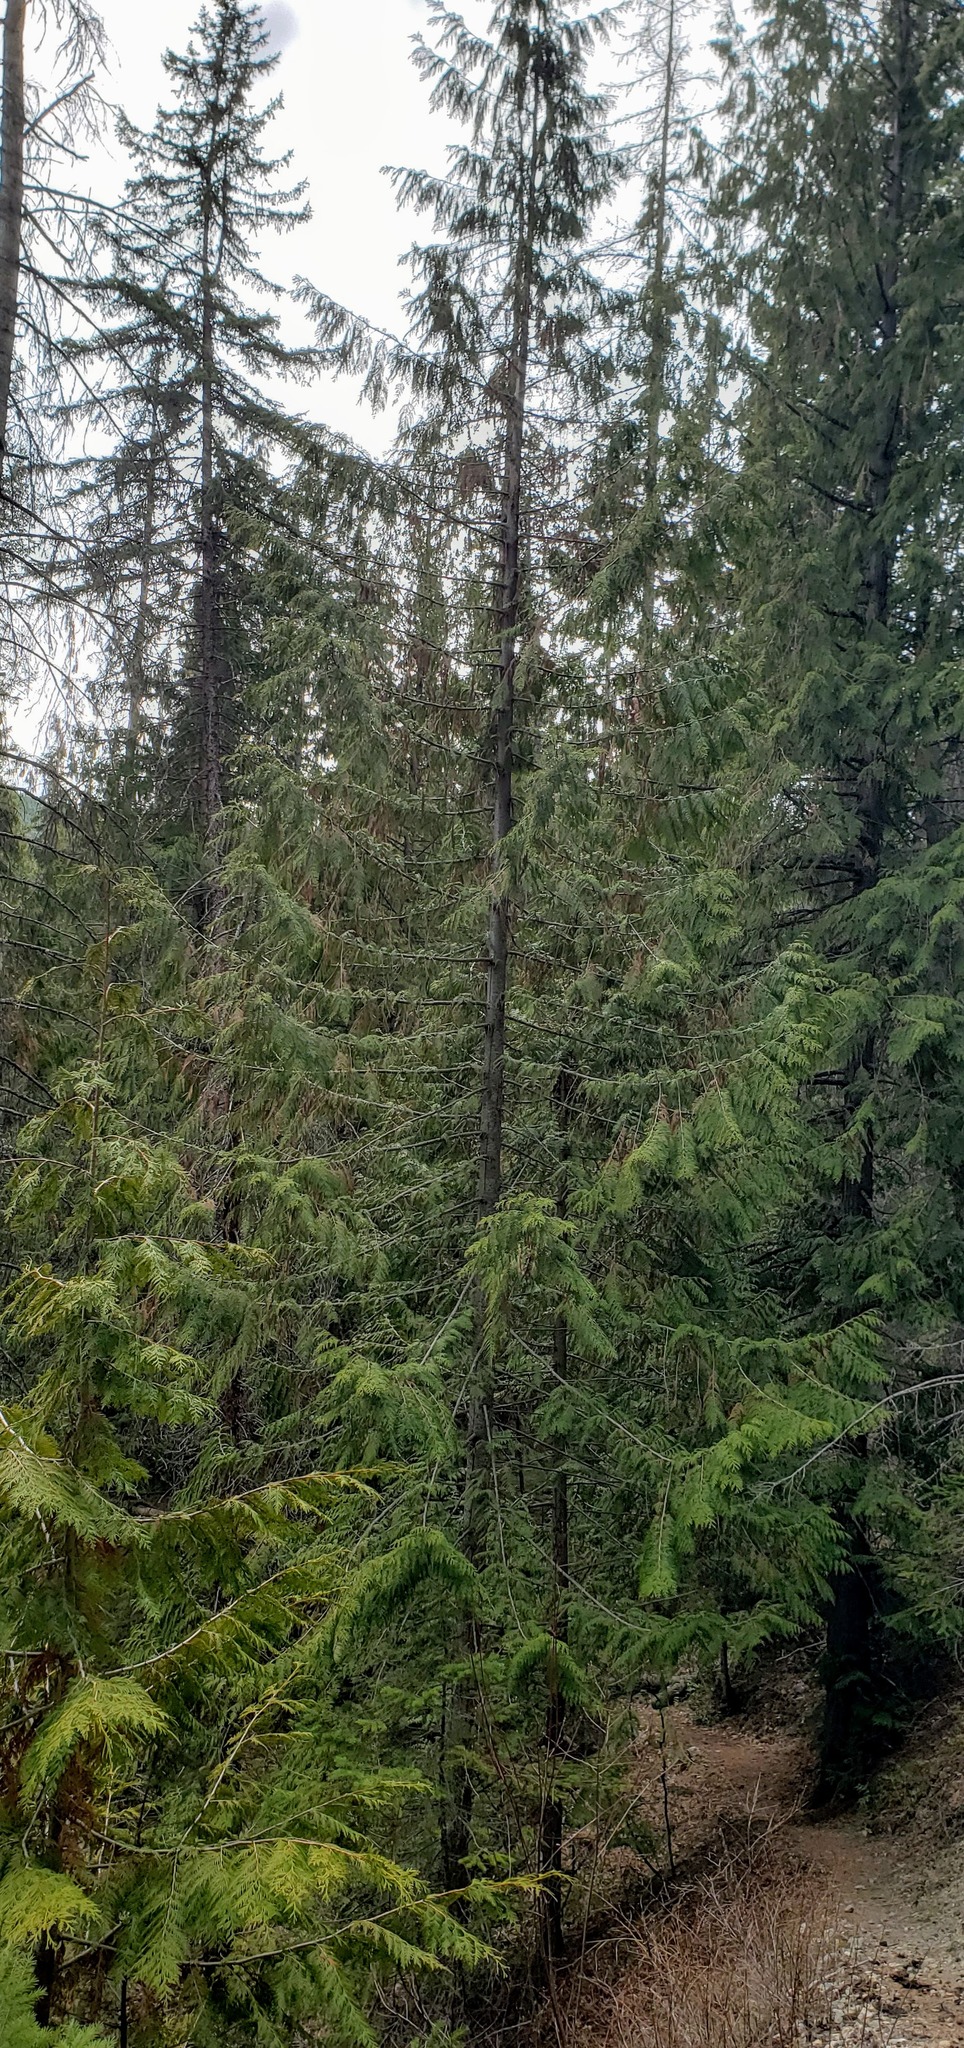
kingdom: Plantae
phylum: Tracheophyta
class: Pinopsida
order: Pinales
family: Cupressaceae
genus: Thuja
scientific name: Thuja plicata
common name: Western red-cedar
